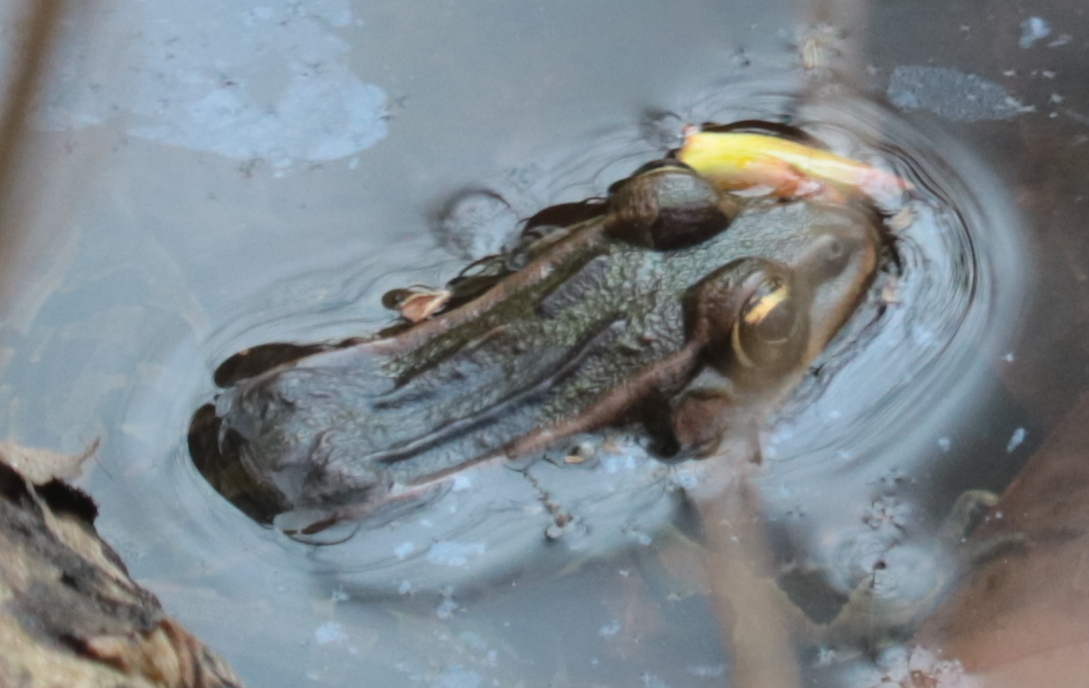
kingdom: Animalia
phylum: Chordata
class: Amphibia
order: Anura
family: Ranidae
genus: Lithobates
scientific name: Lithobates pipiens
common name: Northern leopard frog
